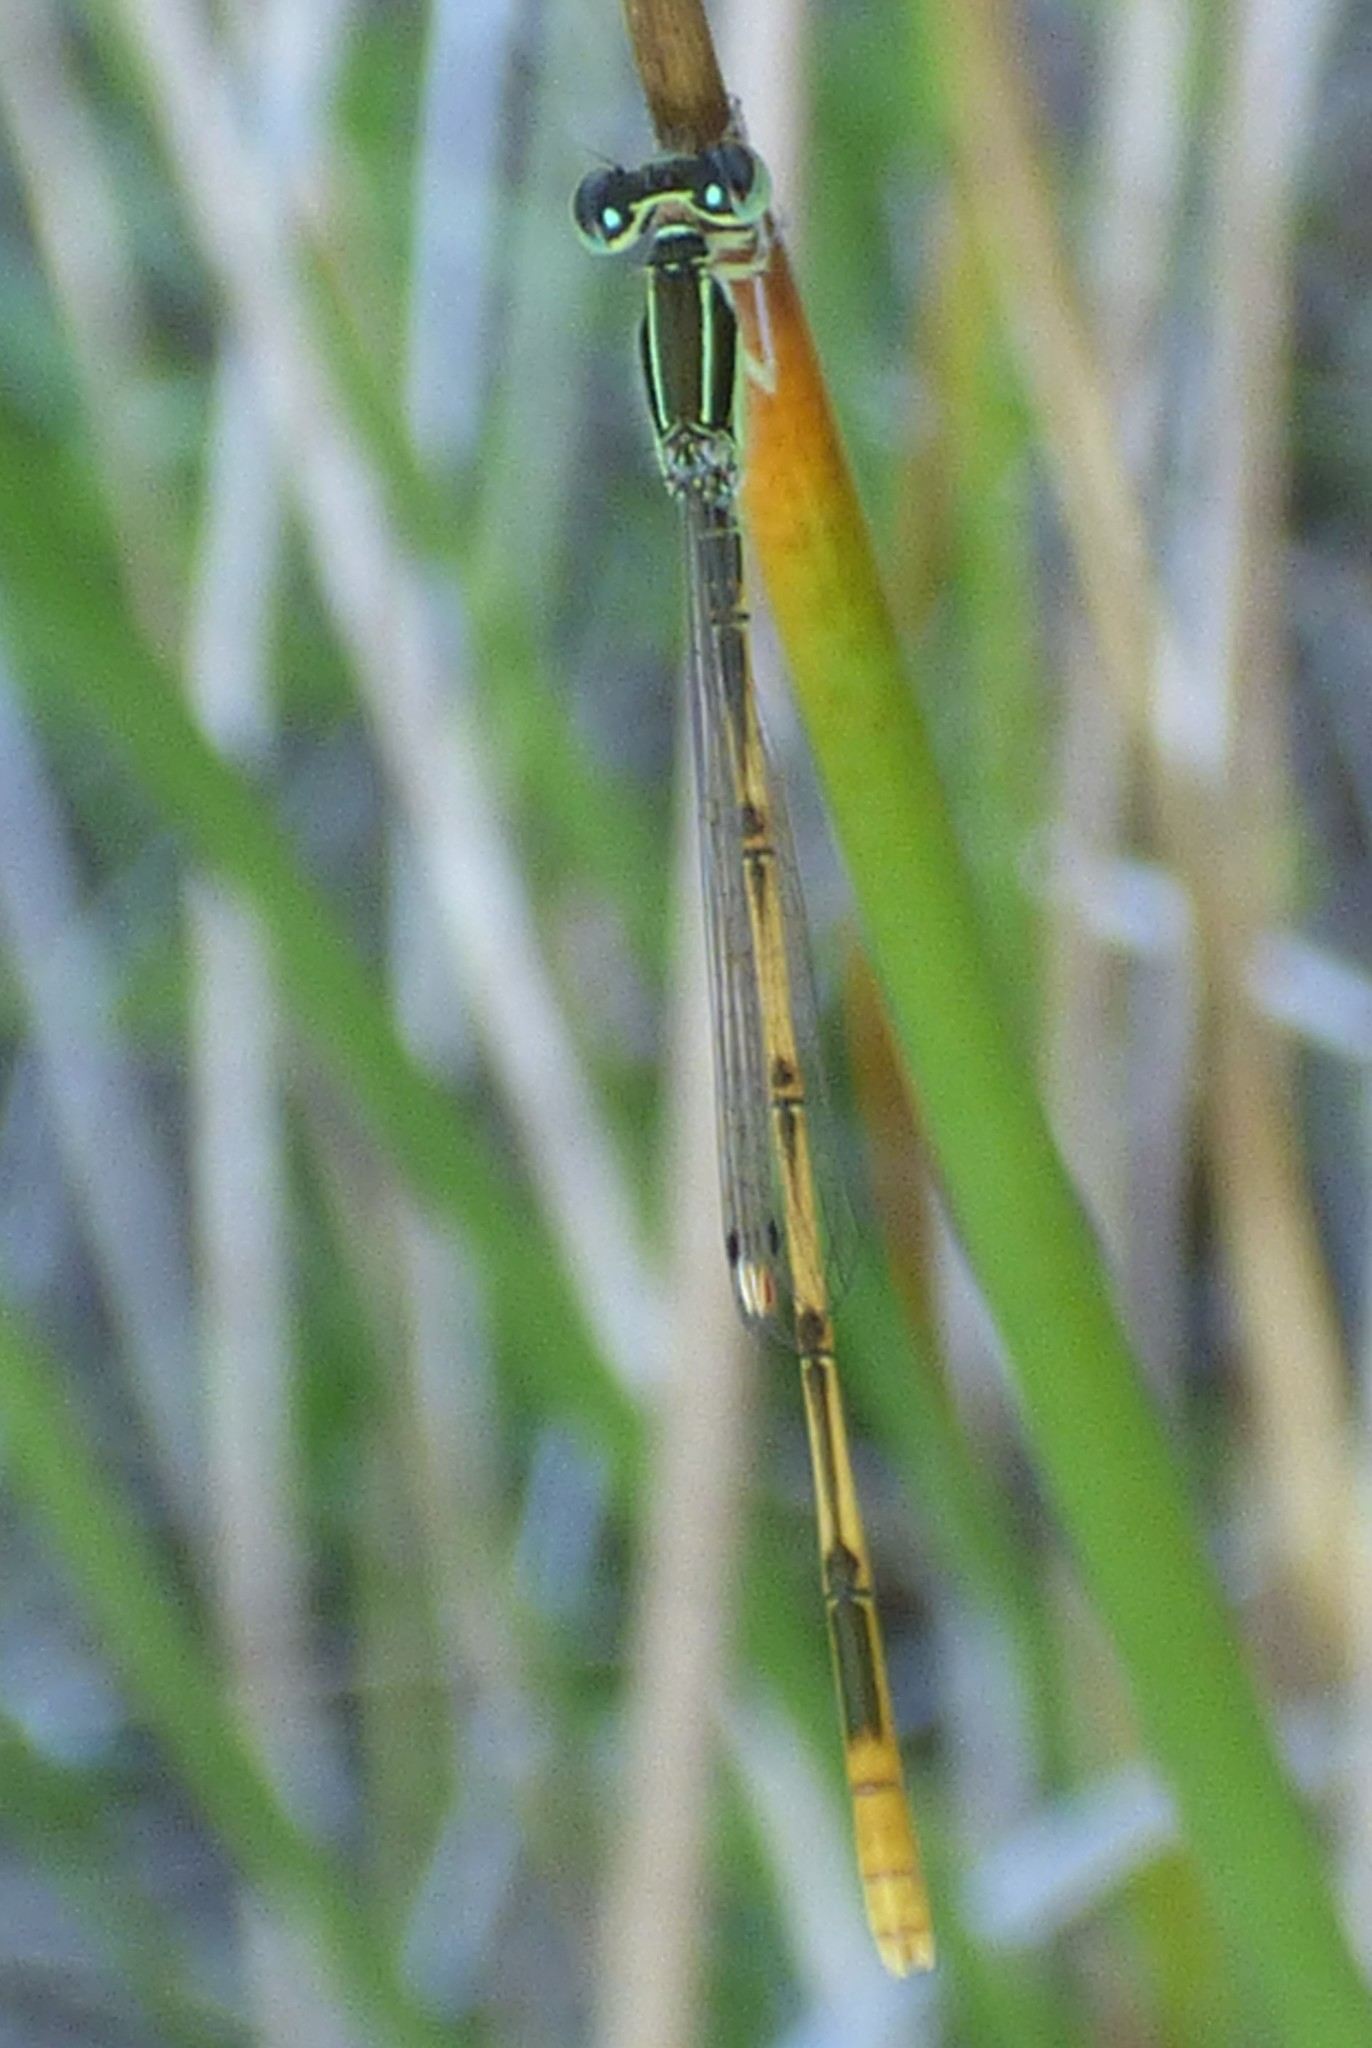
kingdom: Animalia
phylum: Arthropoda
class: Insecta
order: Odonata
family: Coenagrionidae
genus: Ischnura
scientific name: Ischnura hastata
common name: Citrine forktail
